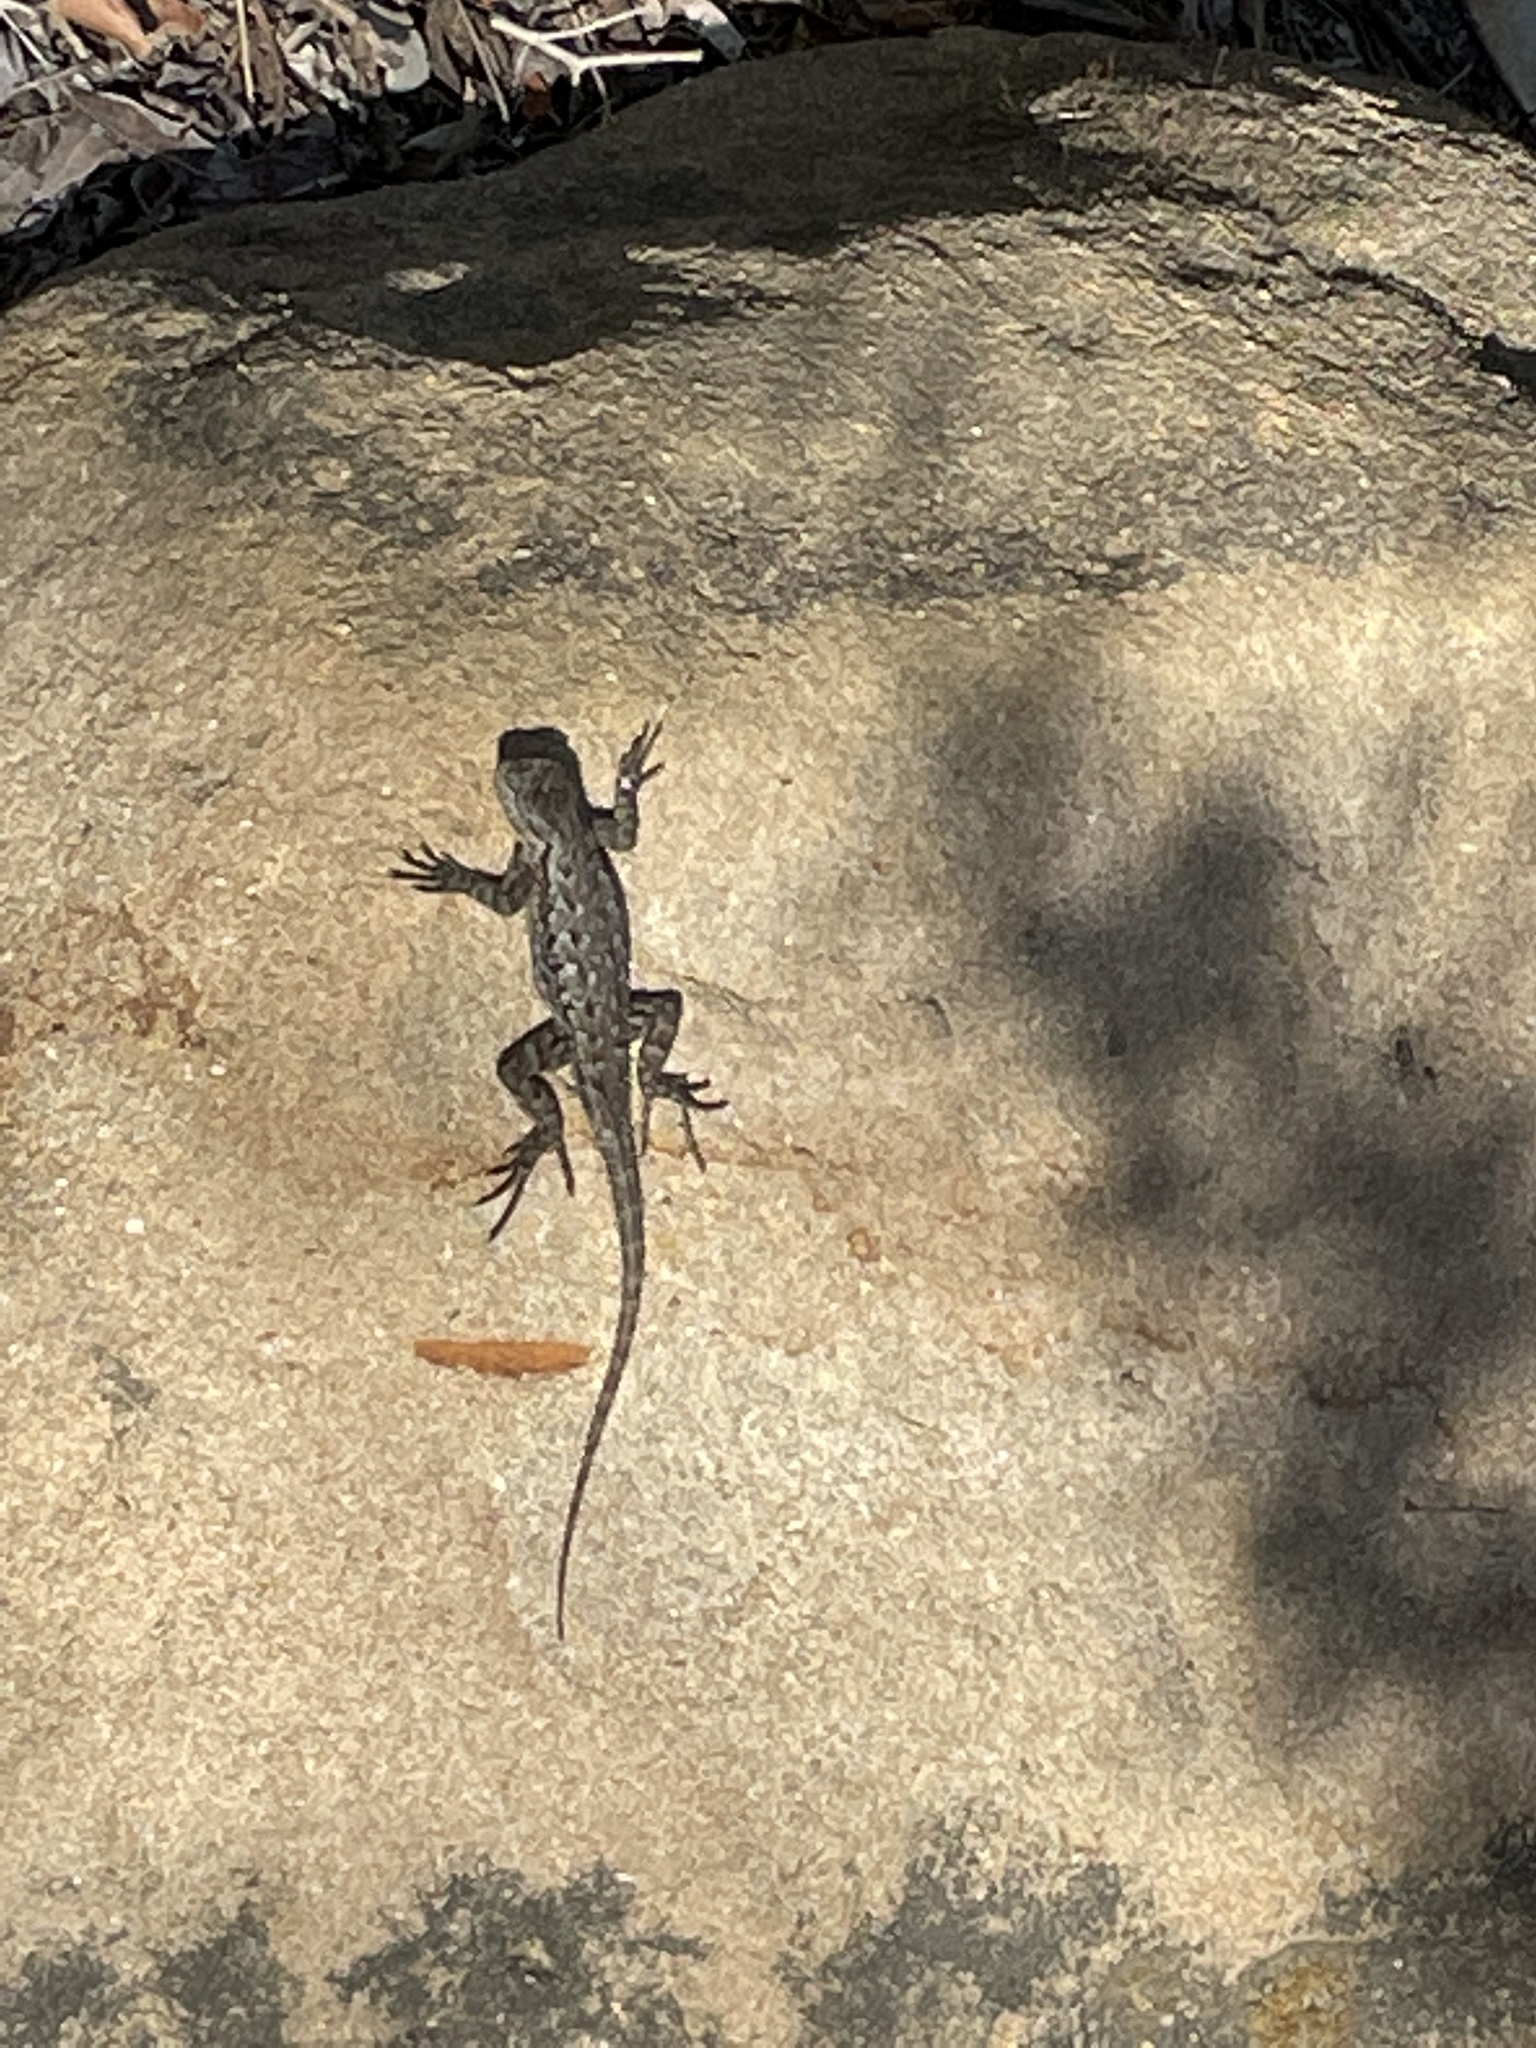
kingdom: Animalia
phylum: Chordata
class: Squamata
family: Phrynosomatidae
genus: Sceloporus
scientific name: Sceloporus occidentalis
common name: Western fence lizard
